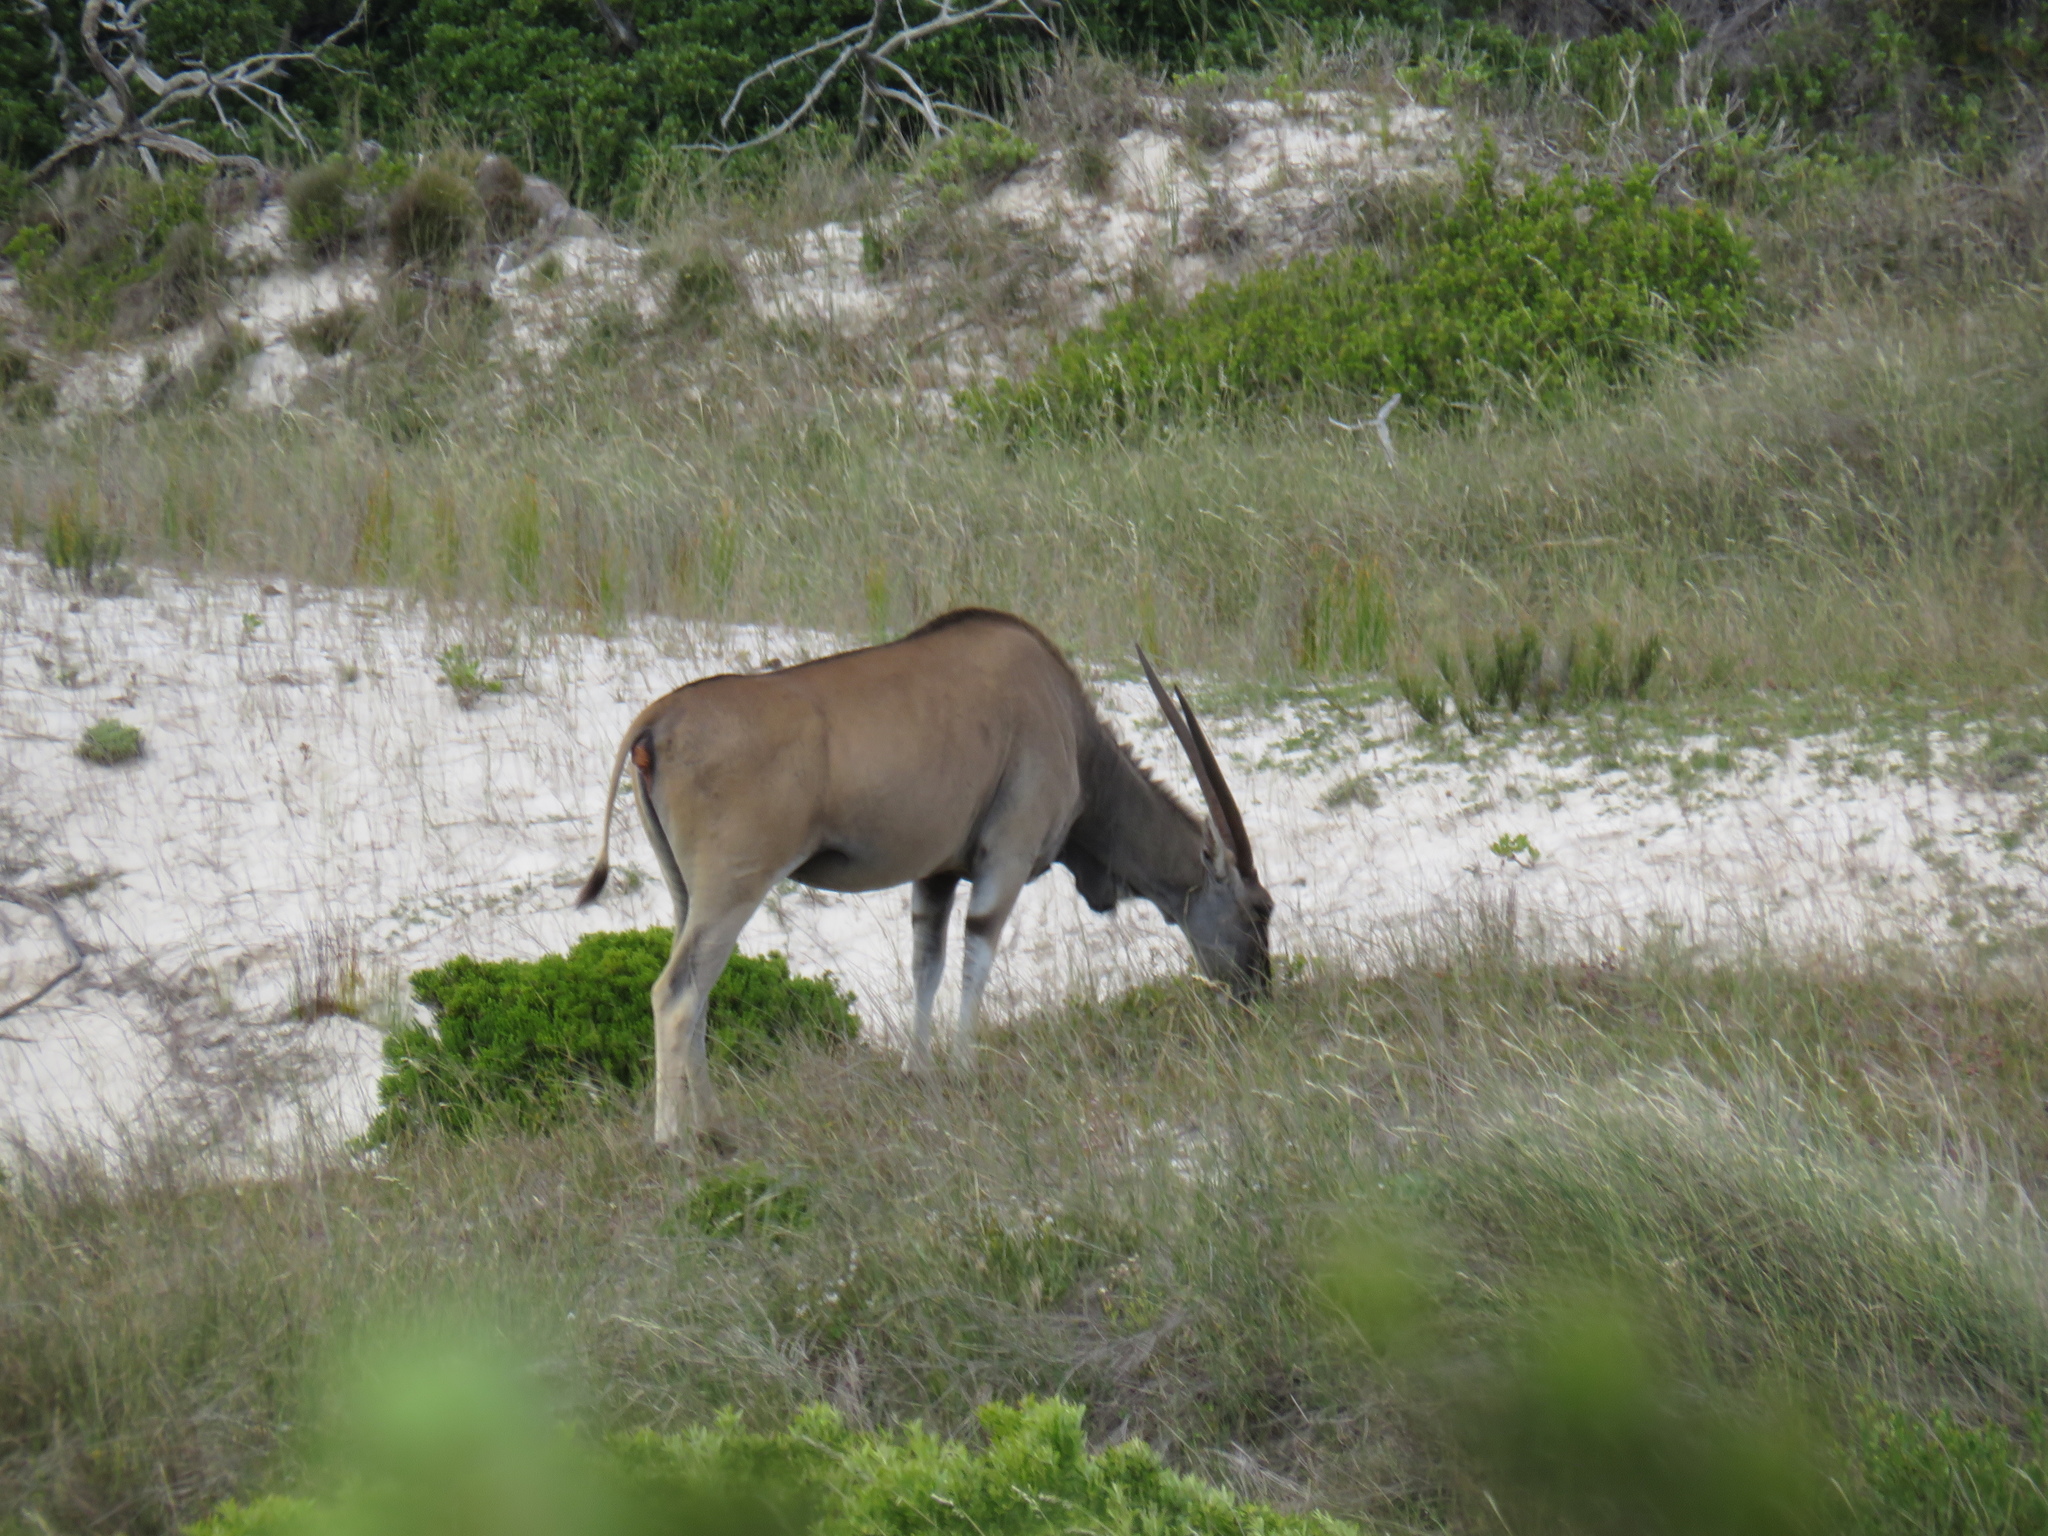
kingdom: Animalia
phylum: Chordata
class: Mammalia
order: Artiodactyla
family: Bovidae
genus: Taurotragus
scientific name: Taurotragus oryx
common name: Common eland
